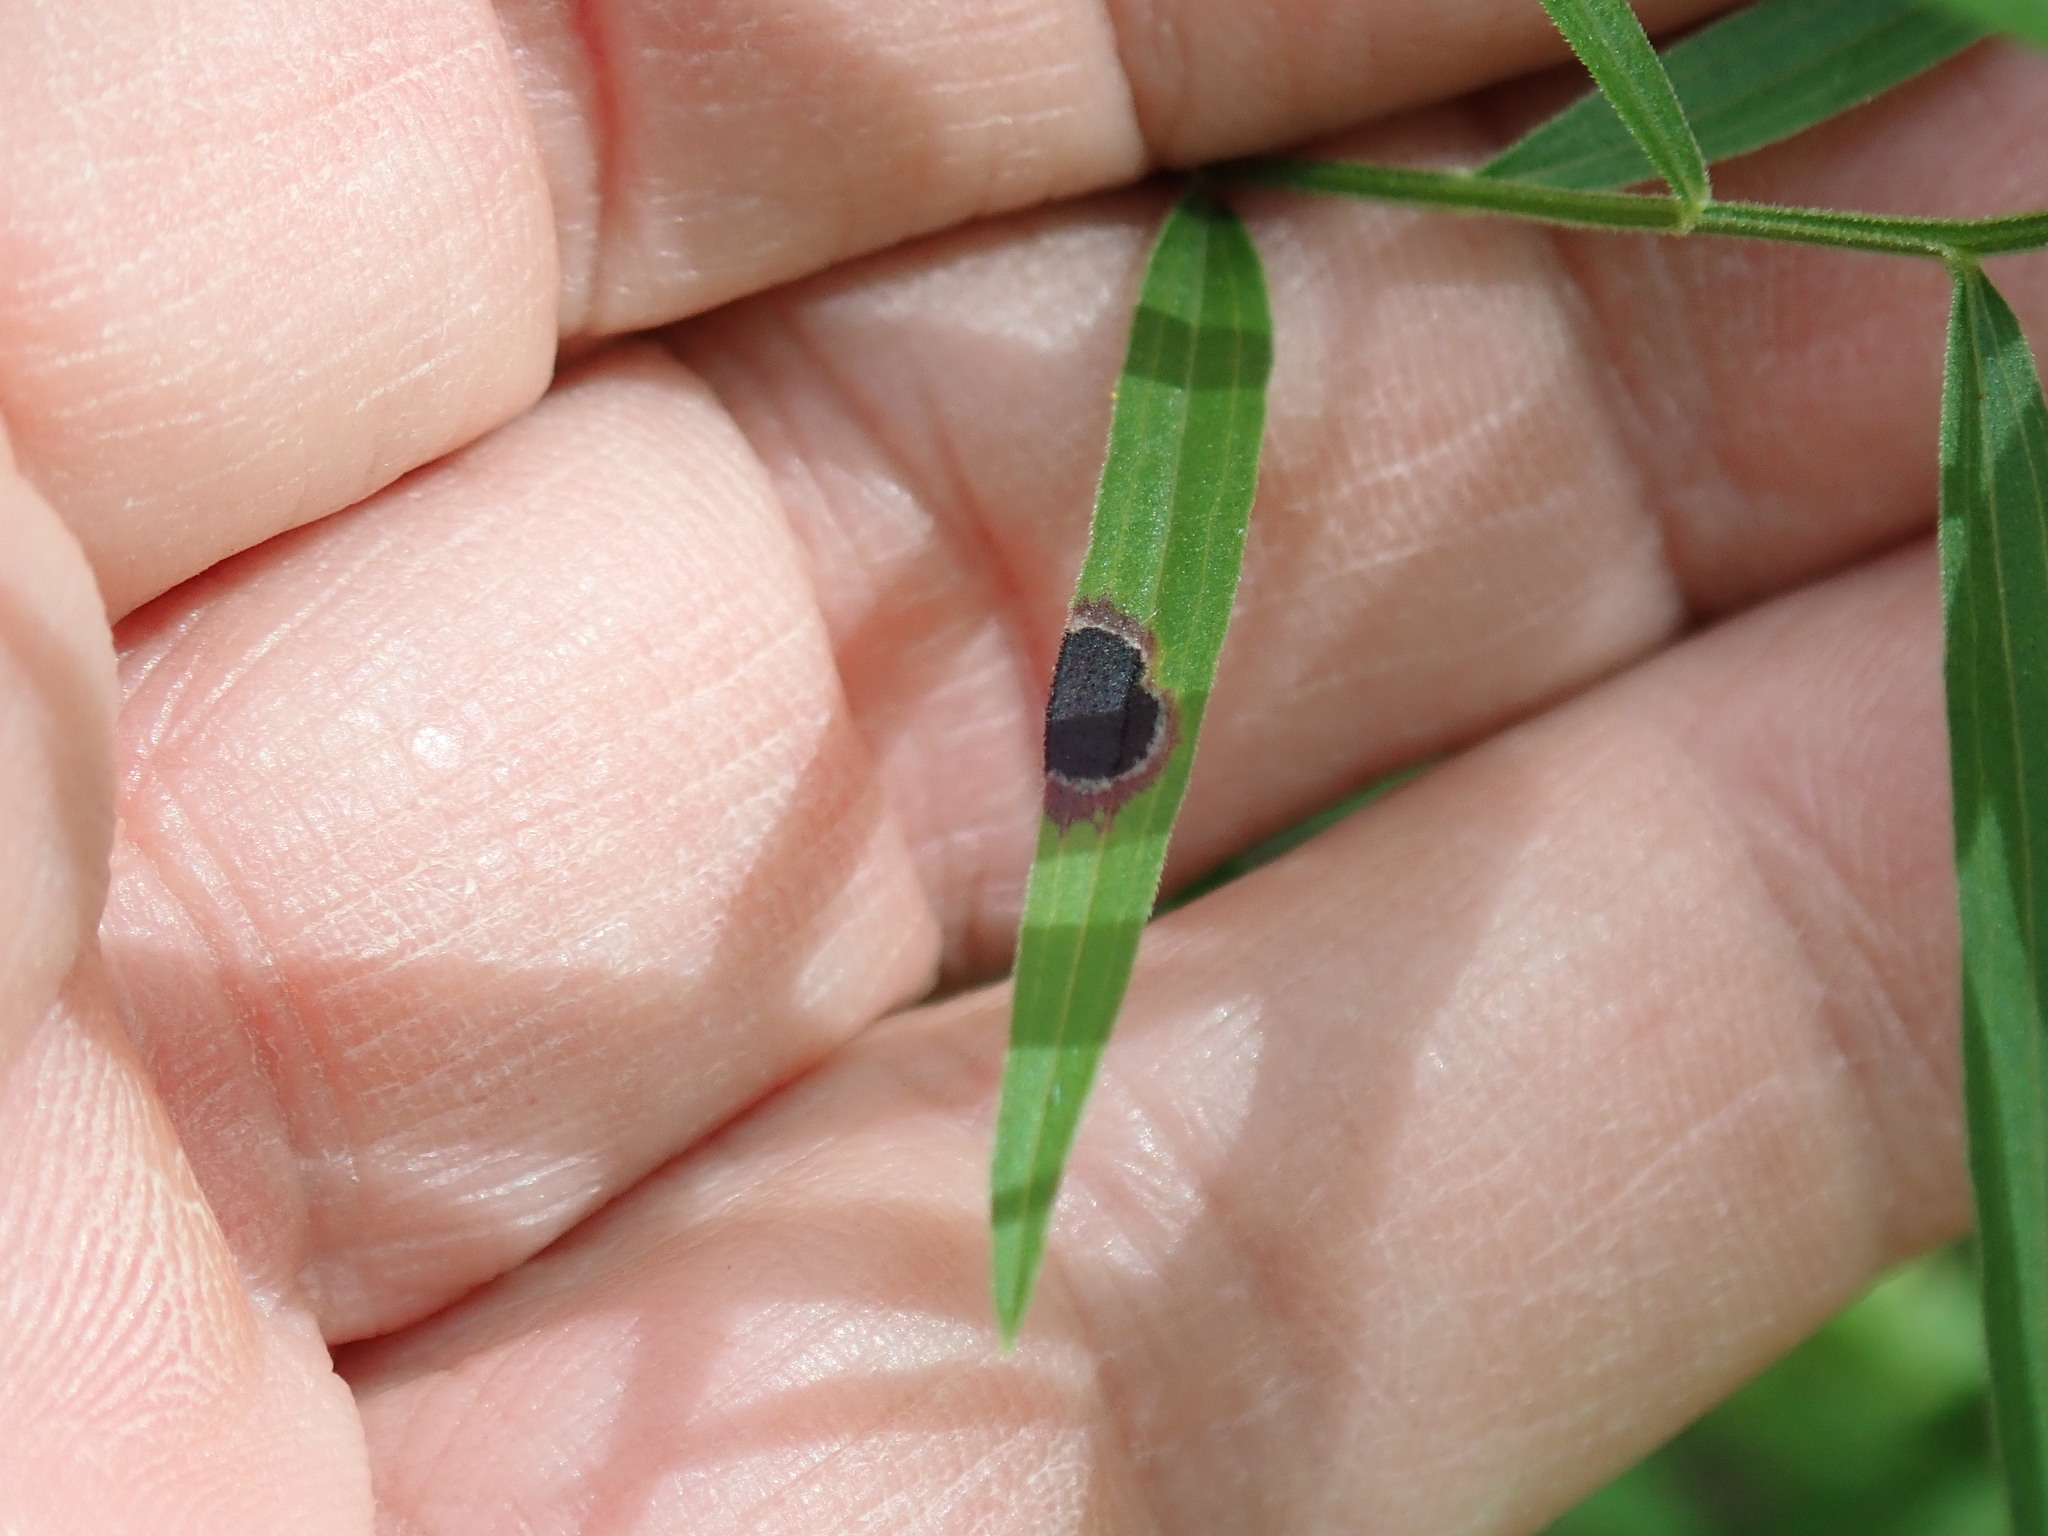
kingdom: Animalia
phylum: Arthropoda
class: Insecta
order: Diptera
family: Cecidomyiidae
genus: Asteromyia
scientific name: Asteromyia euthamiae
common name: Euthamia leaf gall midge
